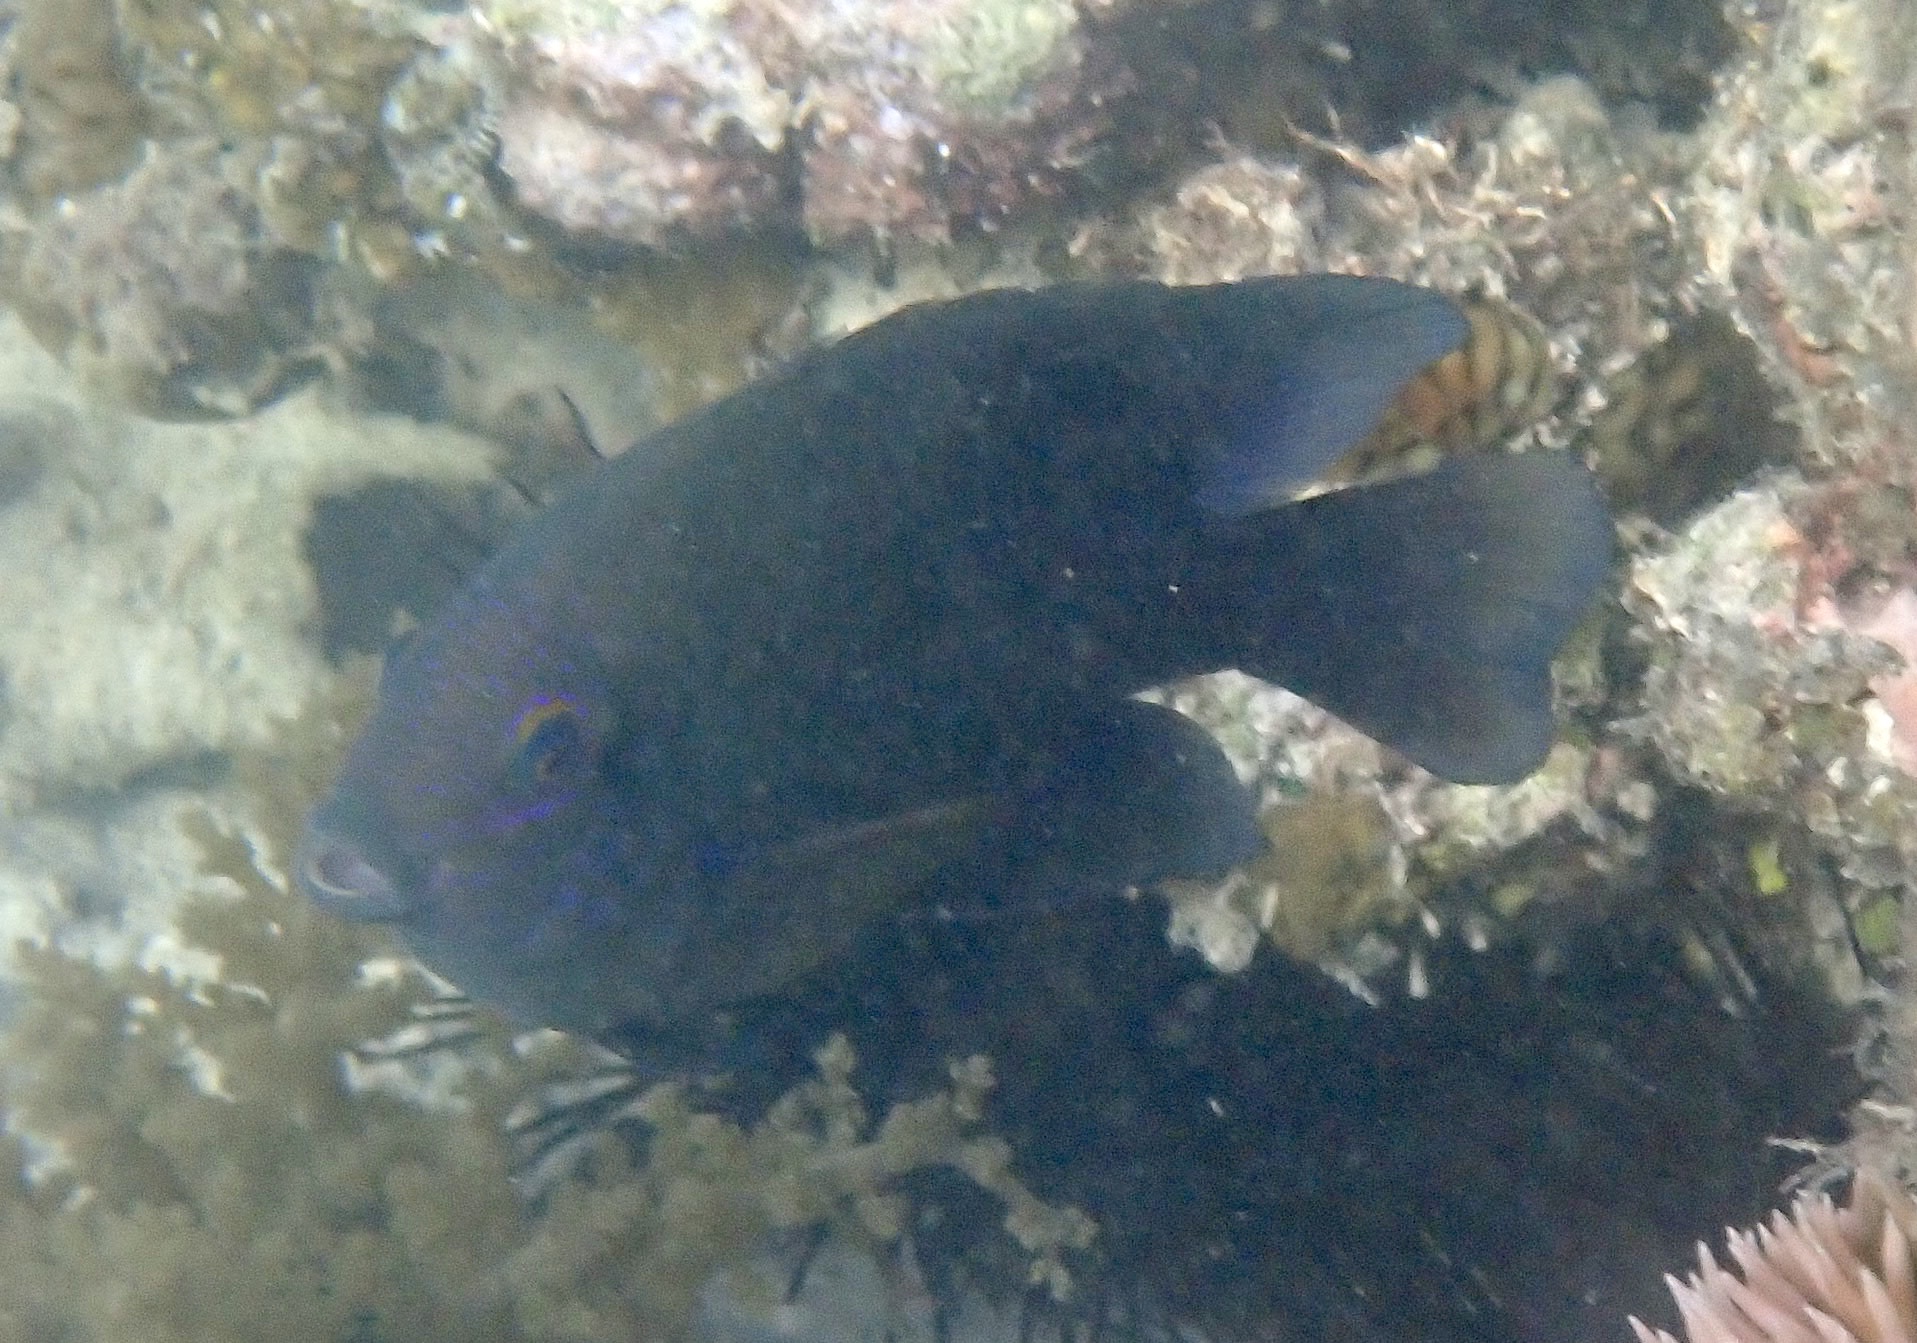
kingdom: Animalia
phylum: Chordata
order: Perciformes
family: Pomacentridae
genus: Hemiglyphidodon
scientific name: Hemiglyphidodon plagiometopon
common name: Lagoon damsel
